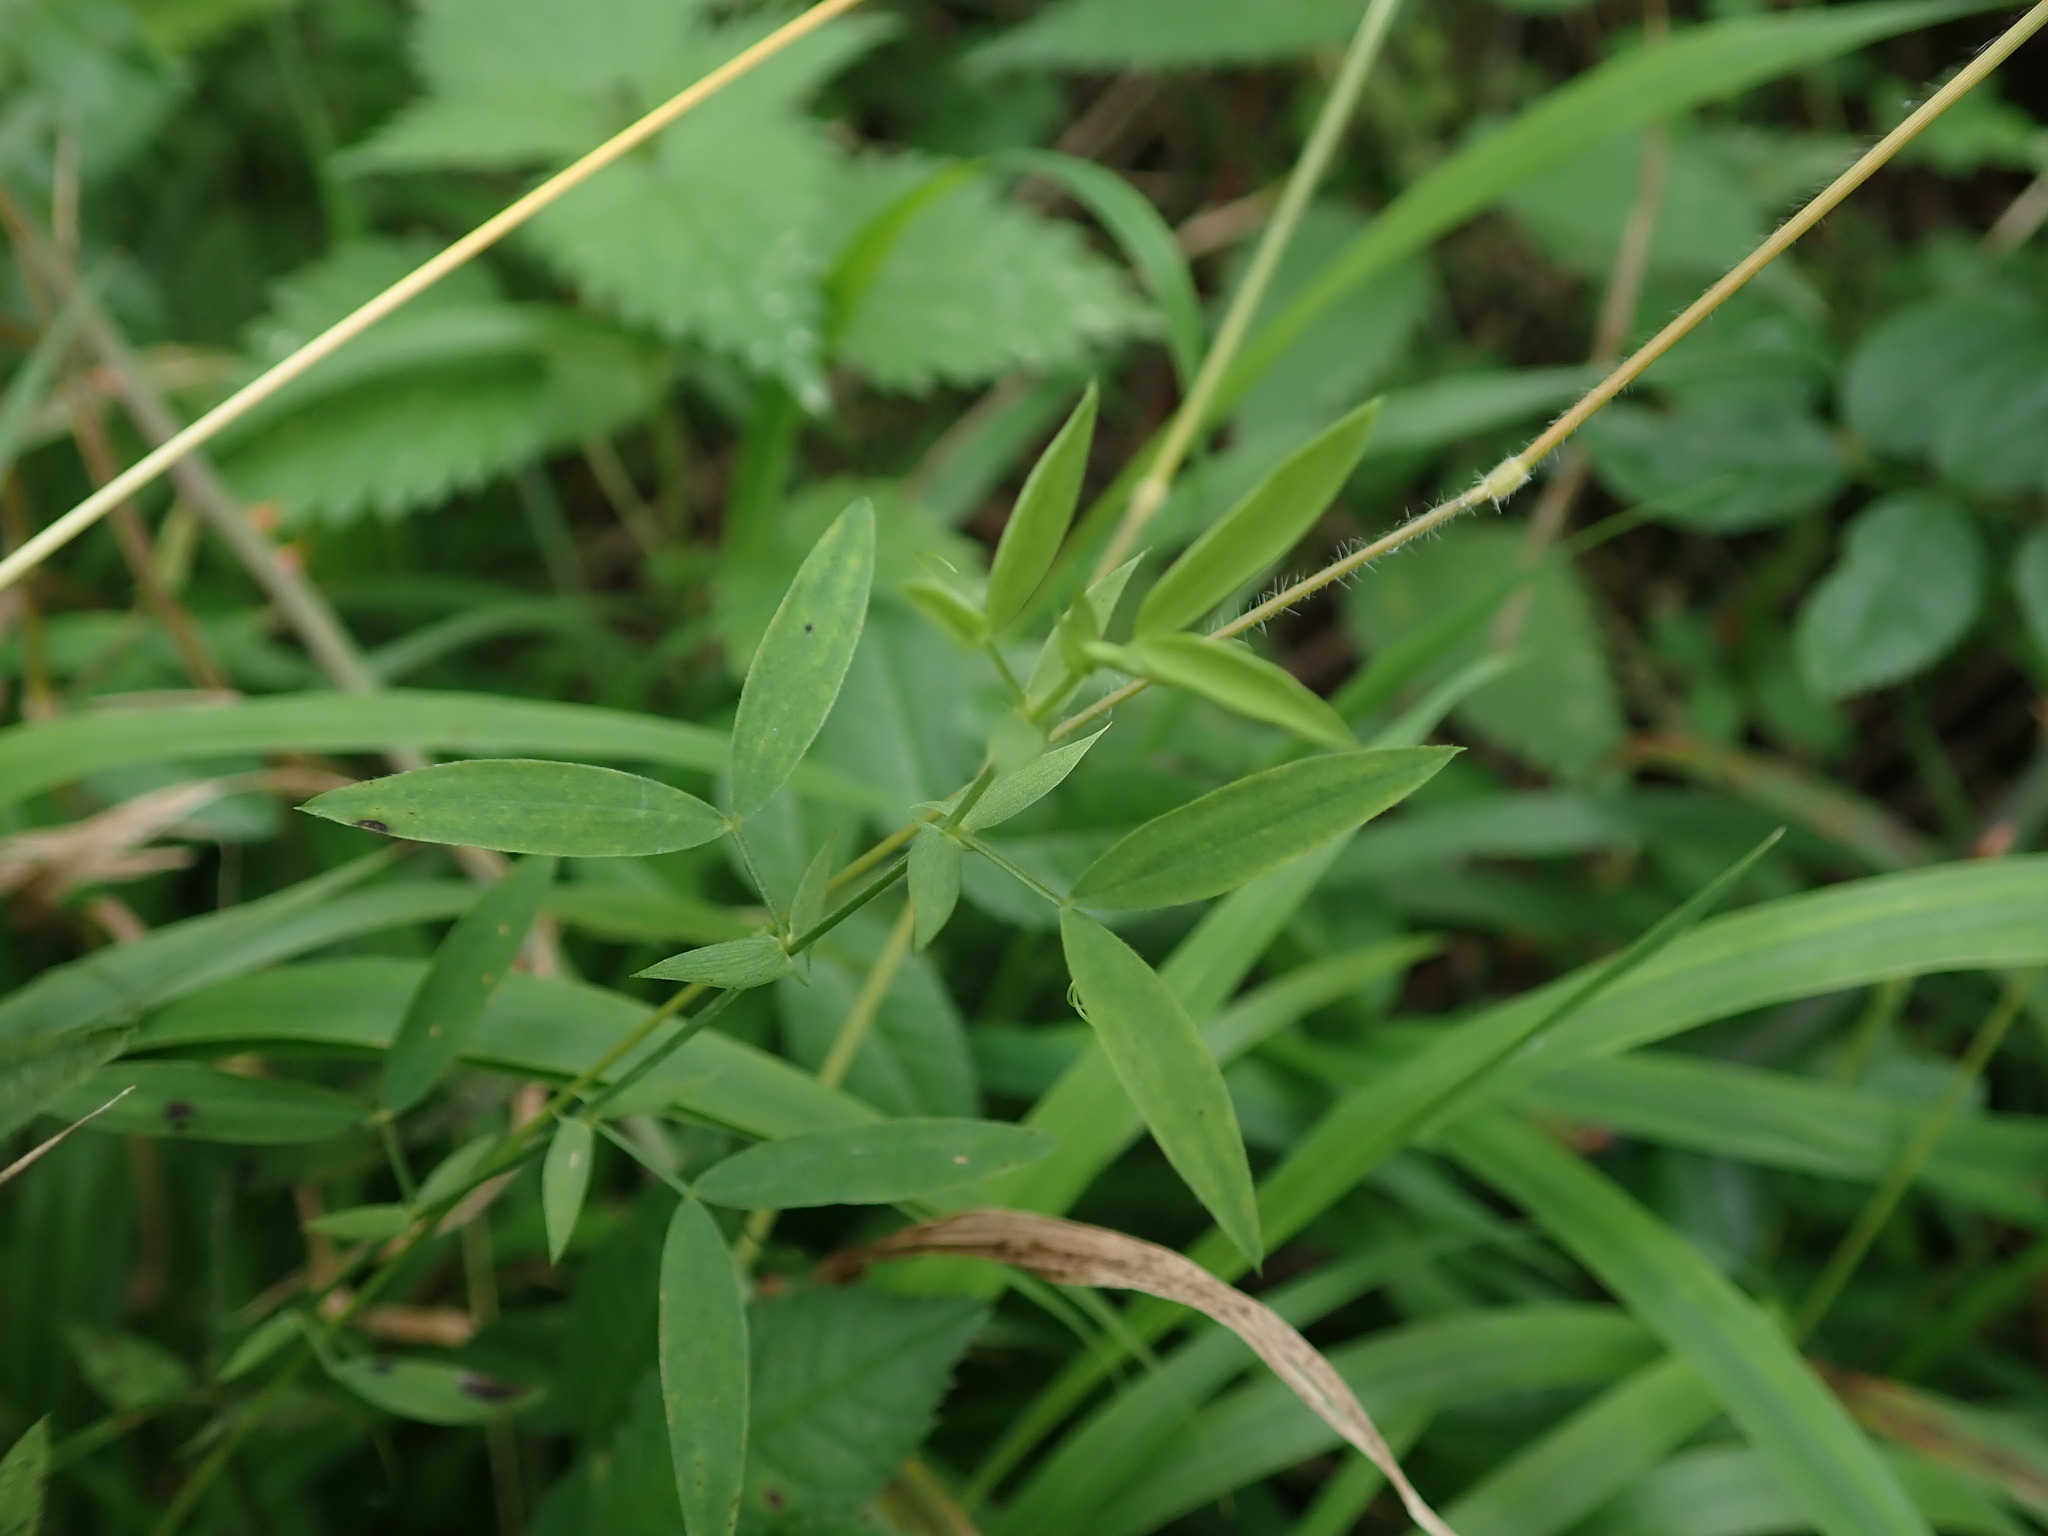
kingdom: Plantae
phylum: Tracheophyta
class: Magnoliopsida
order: Fabales
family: Fabaceae
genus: Lathyrus
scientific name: Lathyrus pratensis
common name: Meadow vetchling
